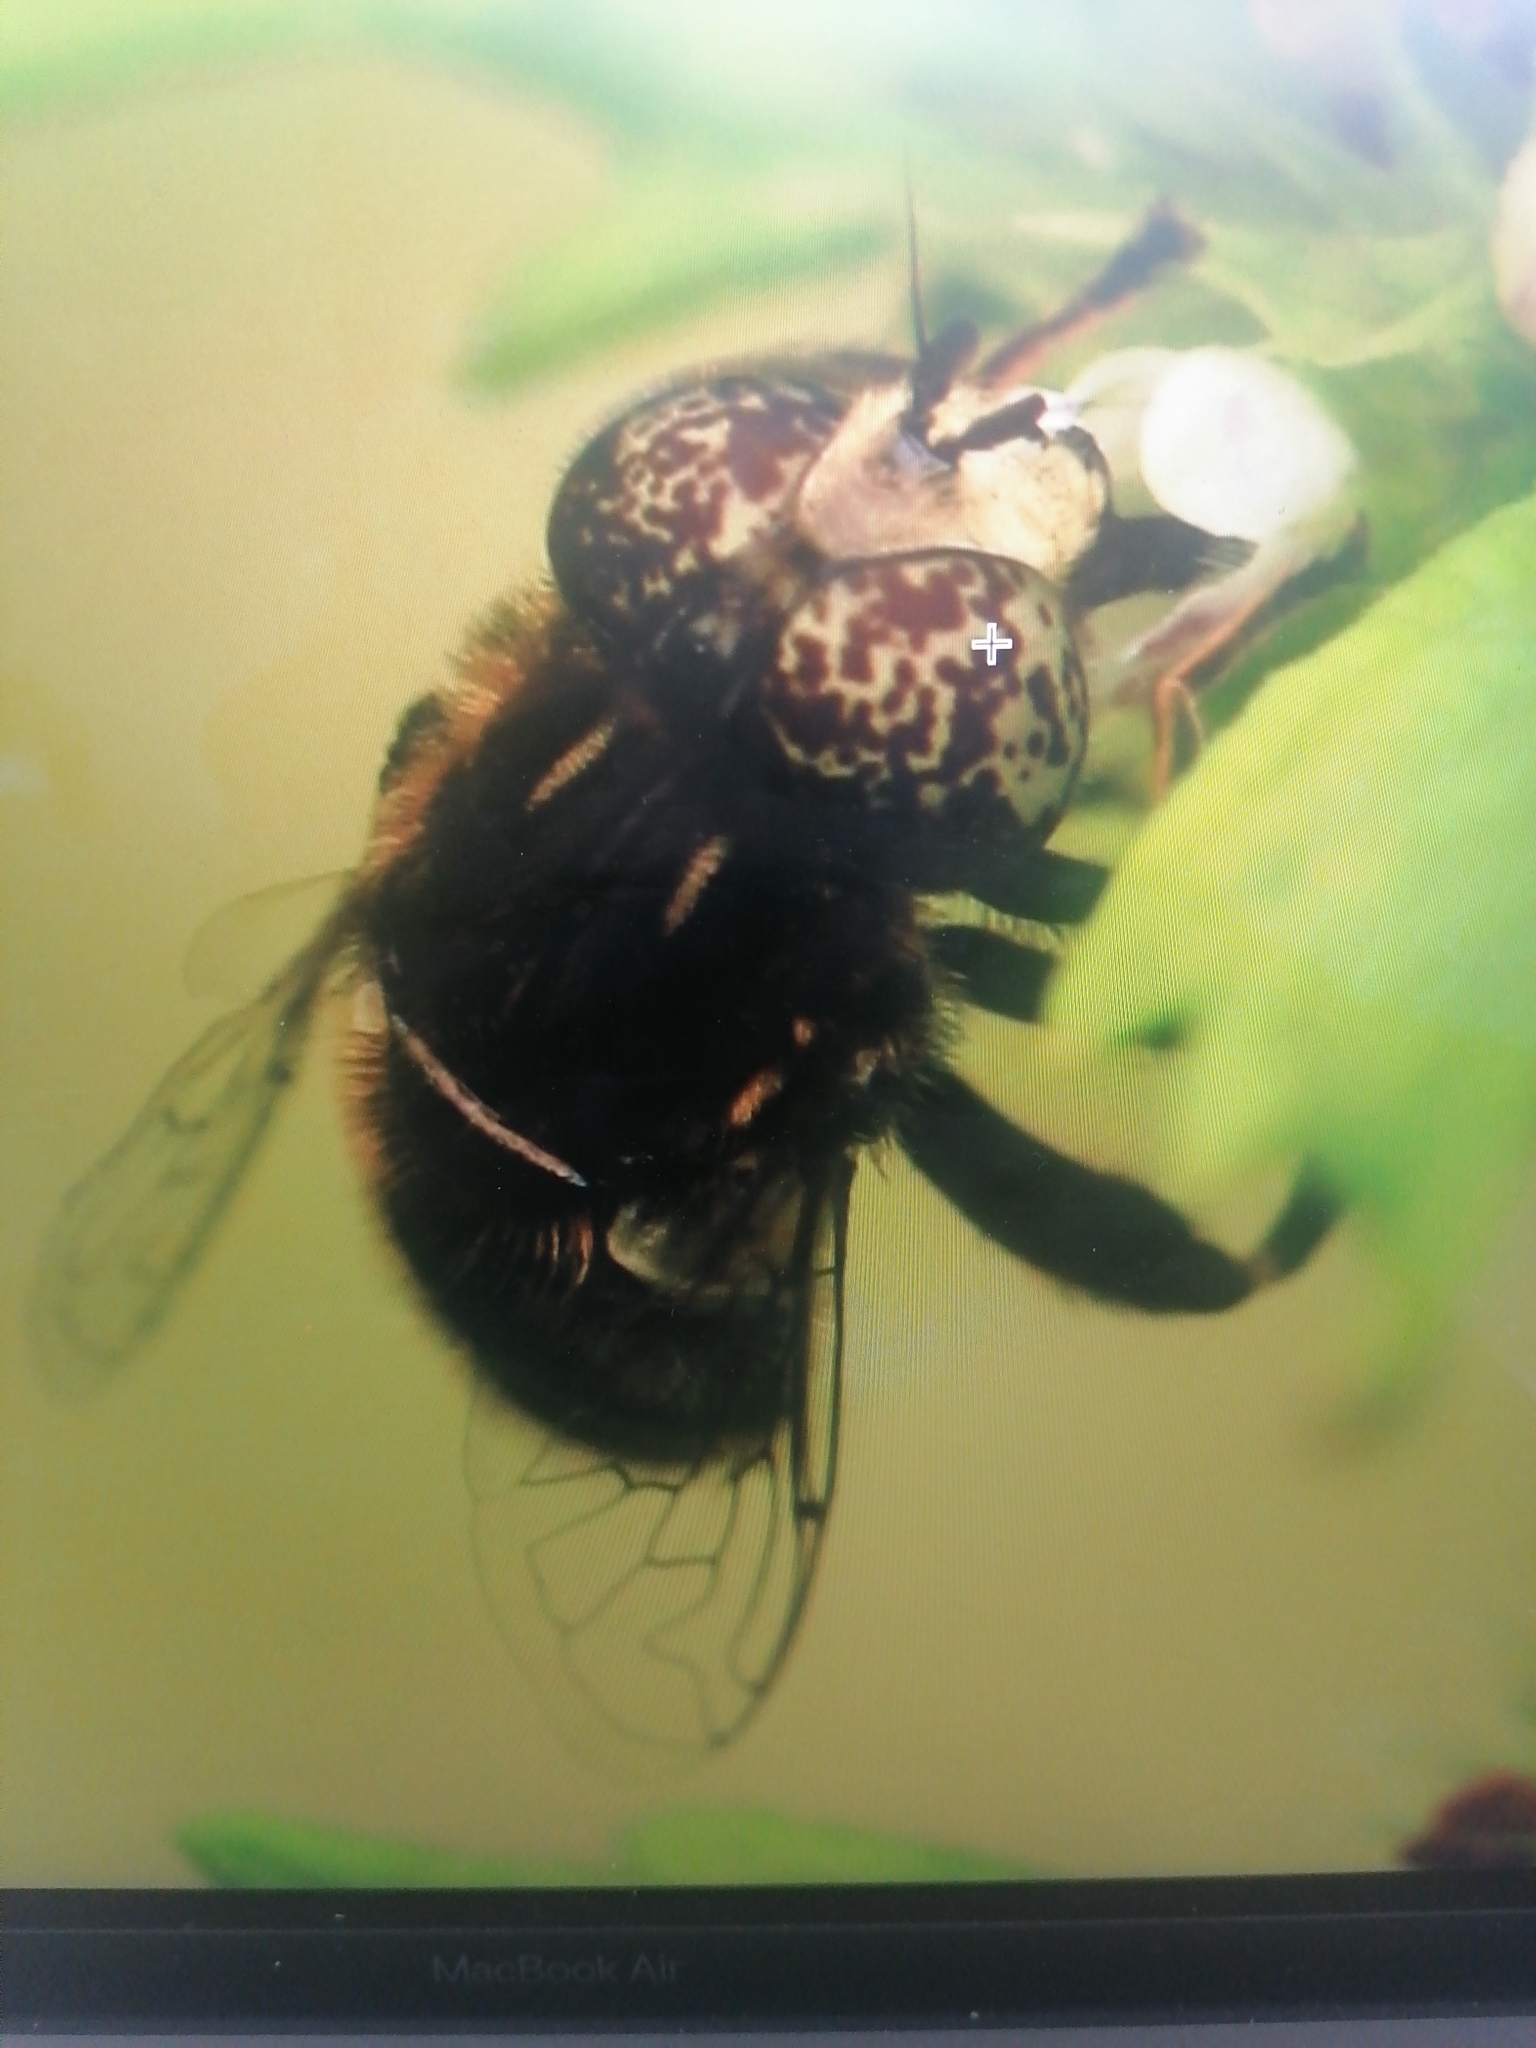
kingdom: Animalia
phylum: Arthropoda
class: Insecta
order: Diptera
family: Syrphidae
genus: Eristalinus
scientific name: Eristalinus sepulchralis
